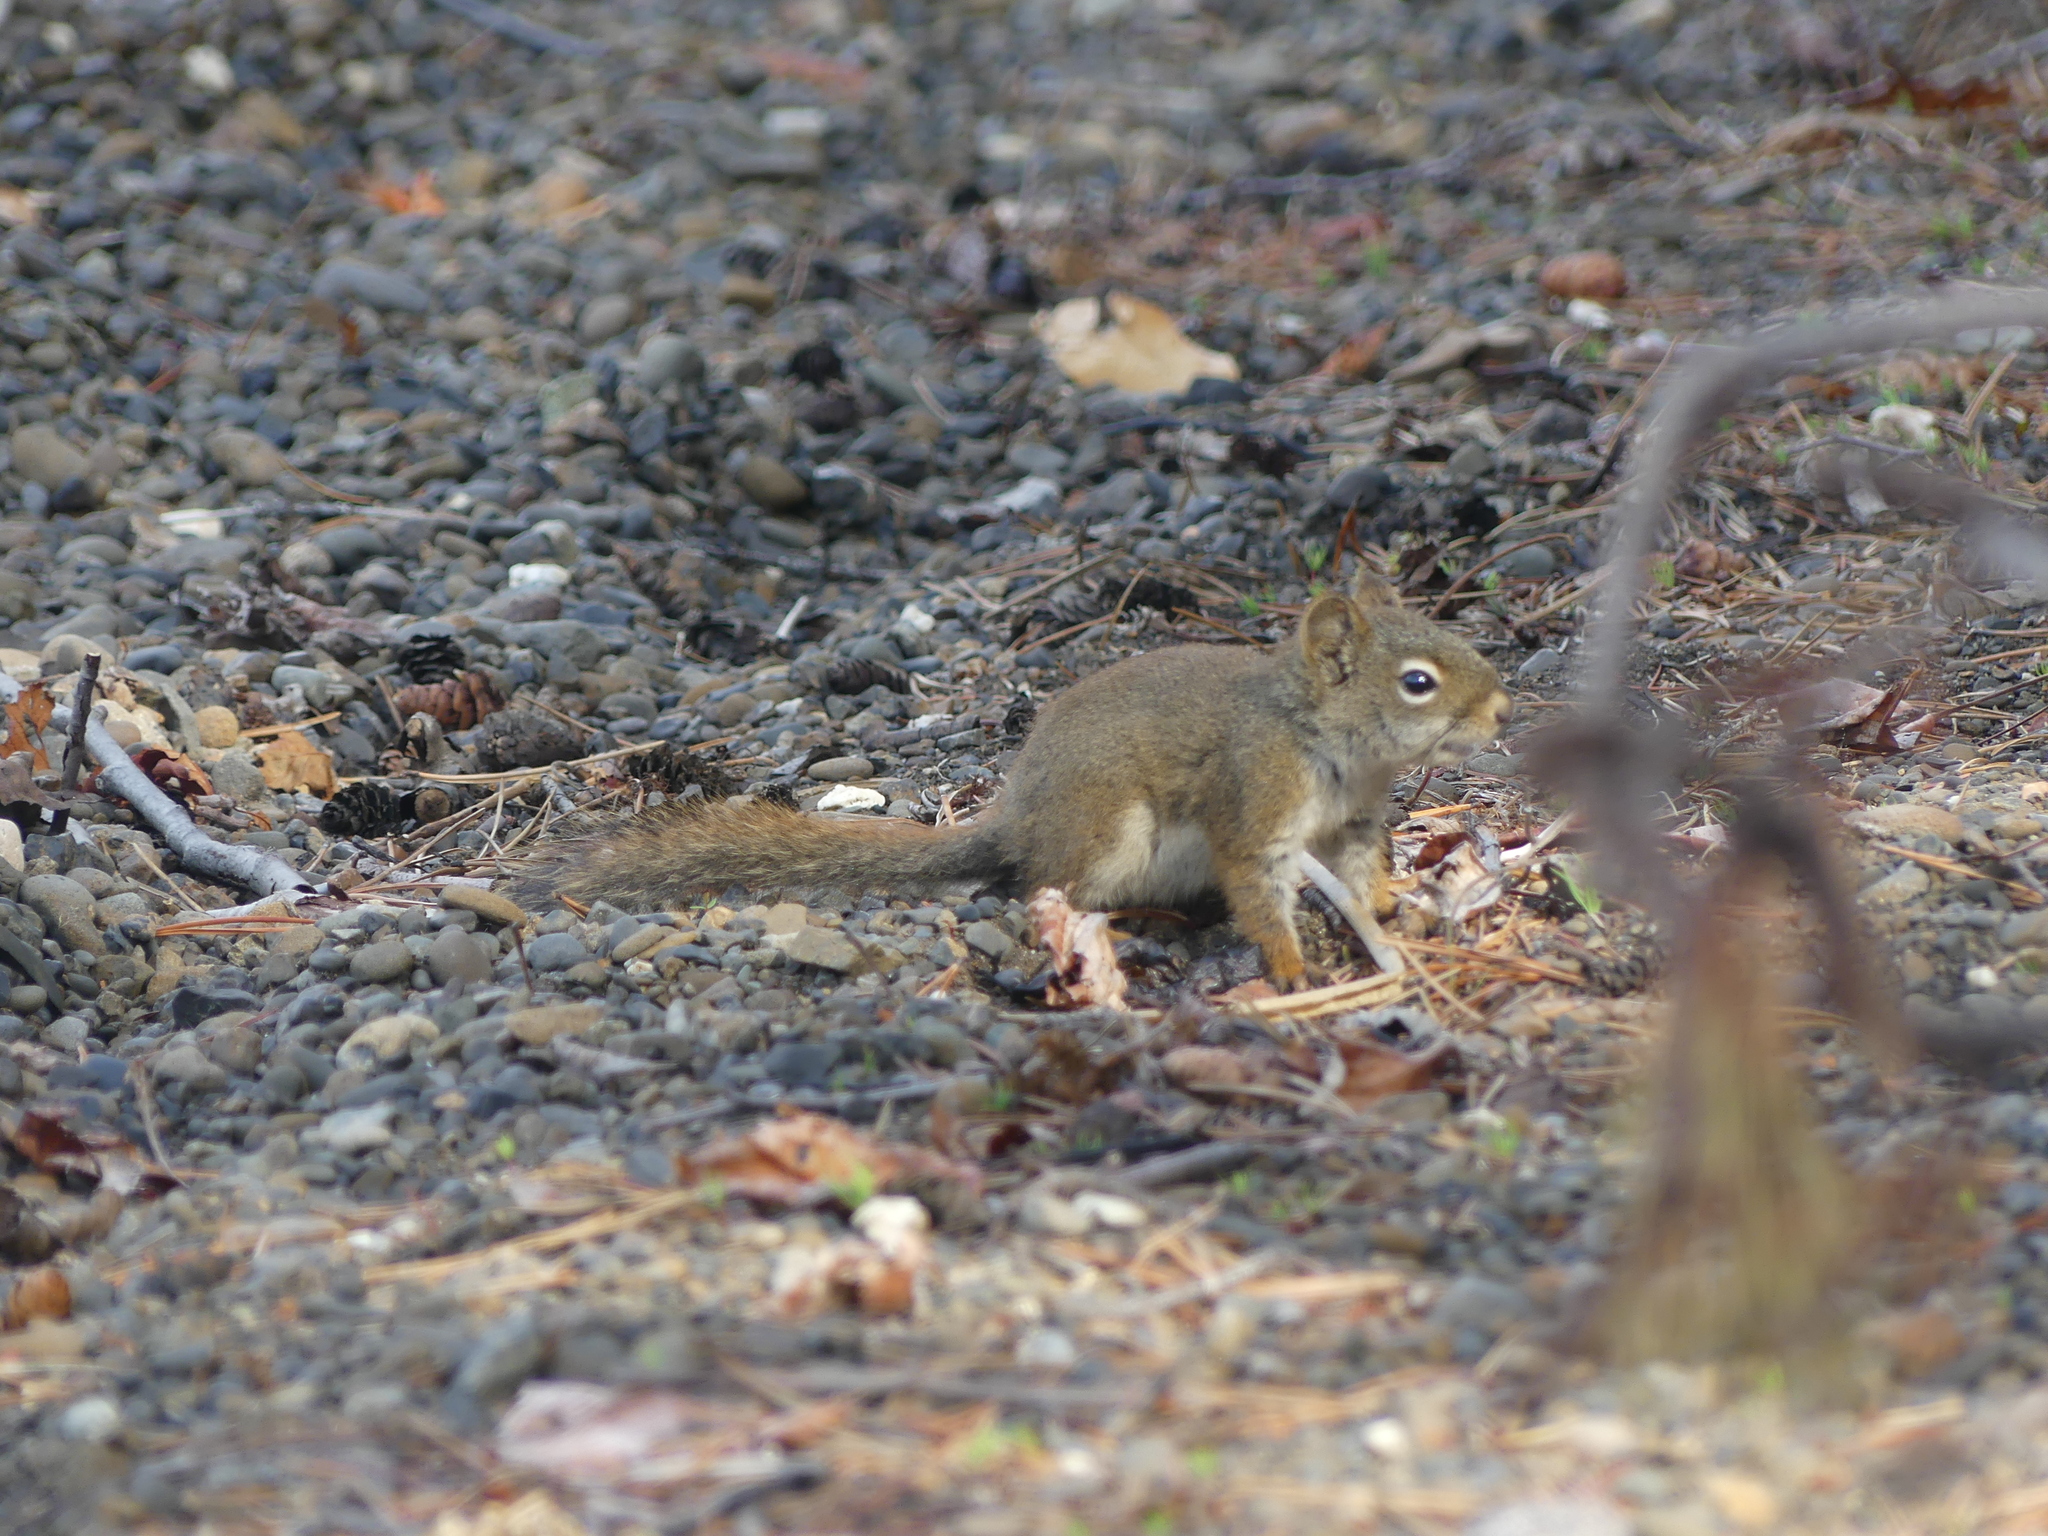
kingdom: Animalia
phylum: Chordata
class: Mammalia
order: Rodentia
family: Sciuridae
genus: Tamiasciurus
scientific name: Tamiasciurus hudsonicus
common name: Red squirrel
